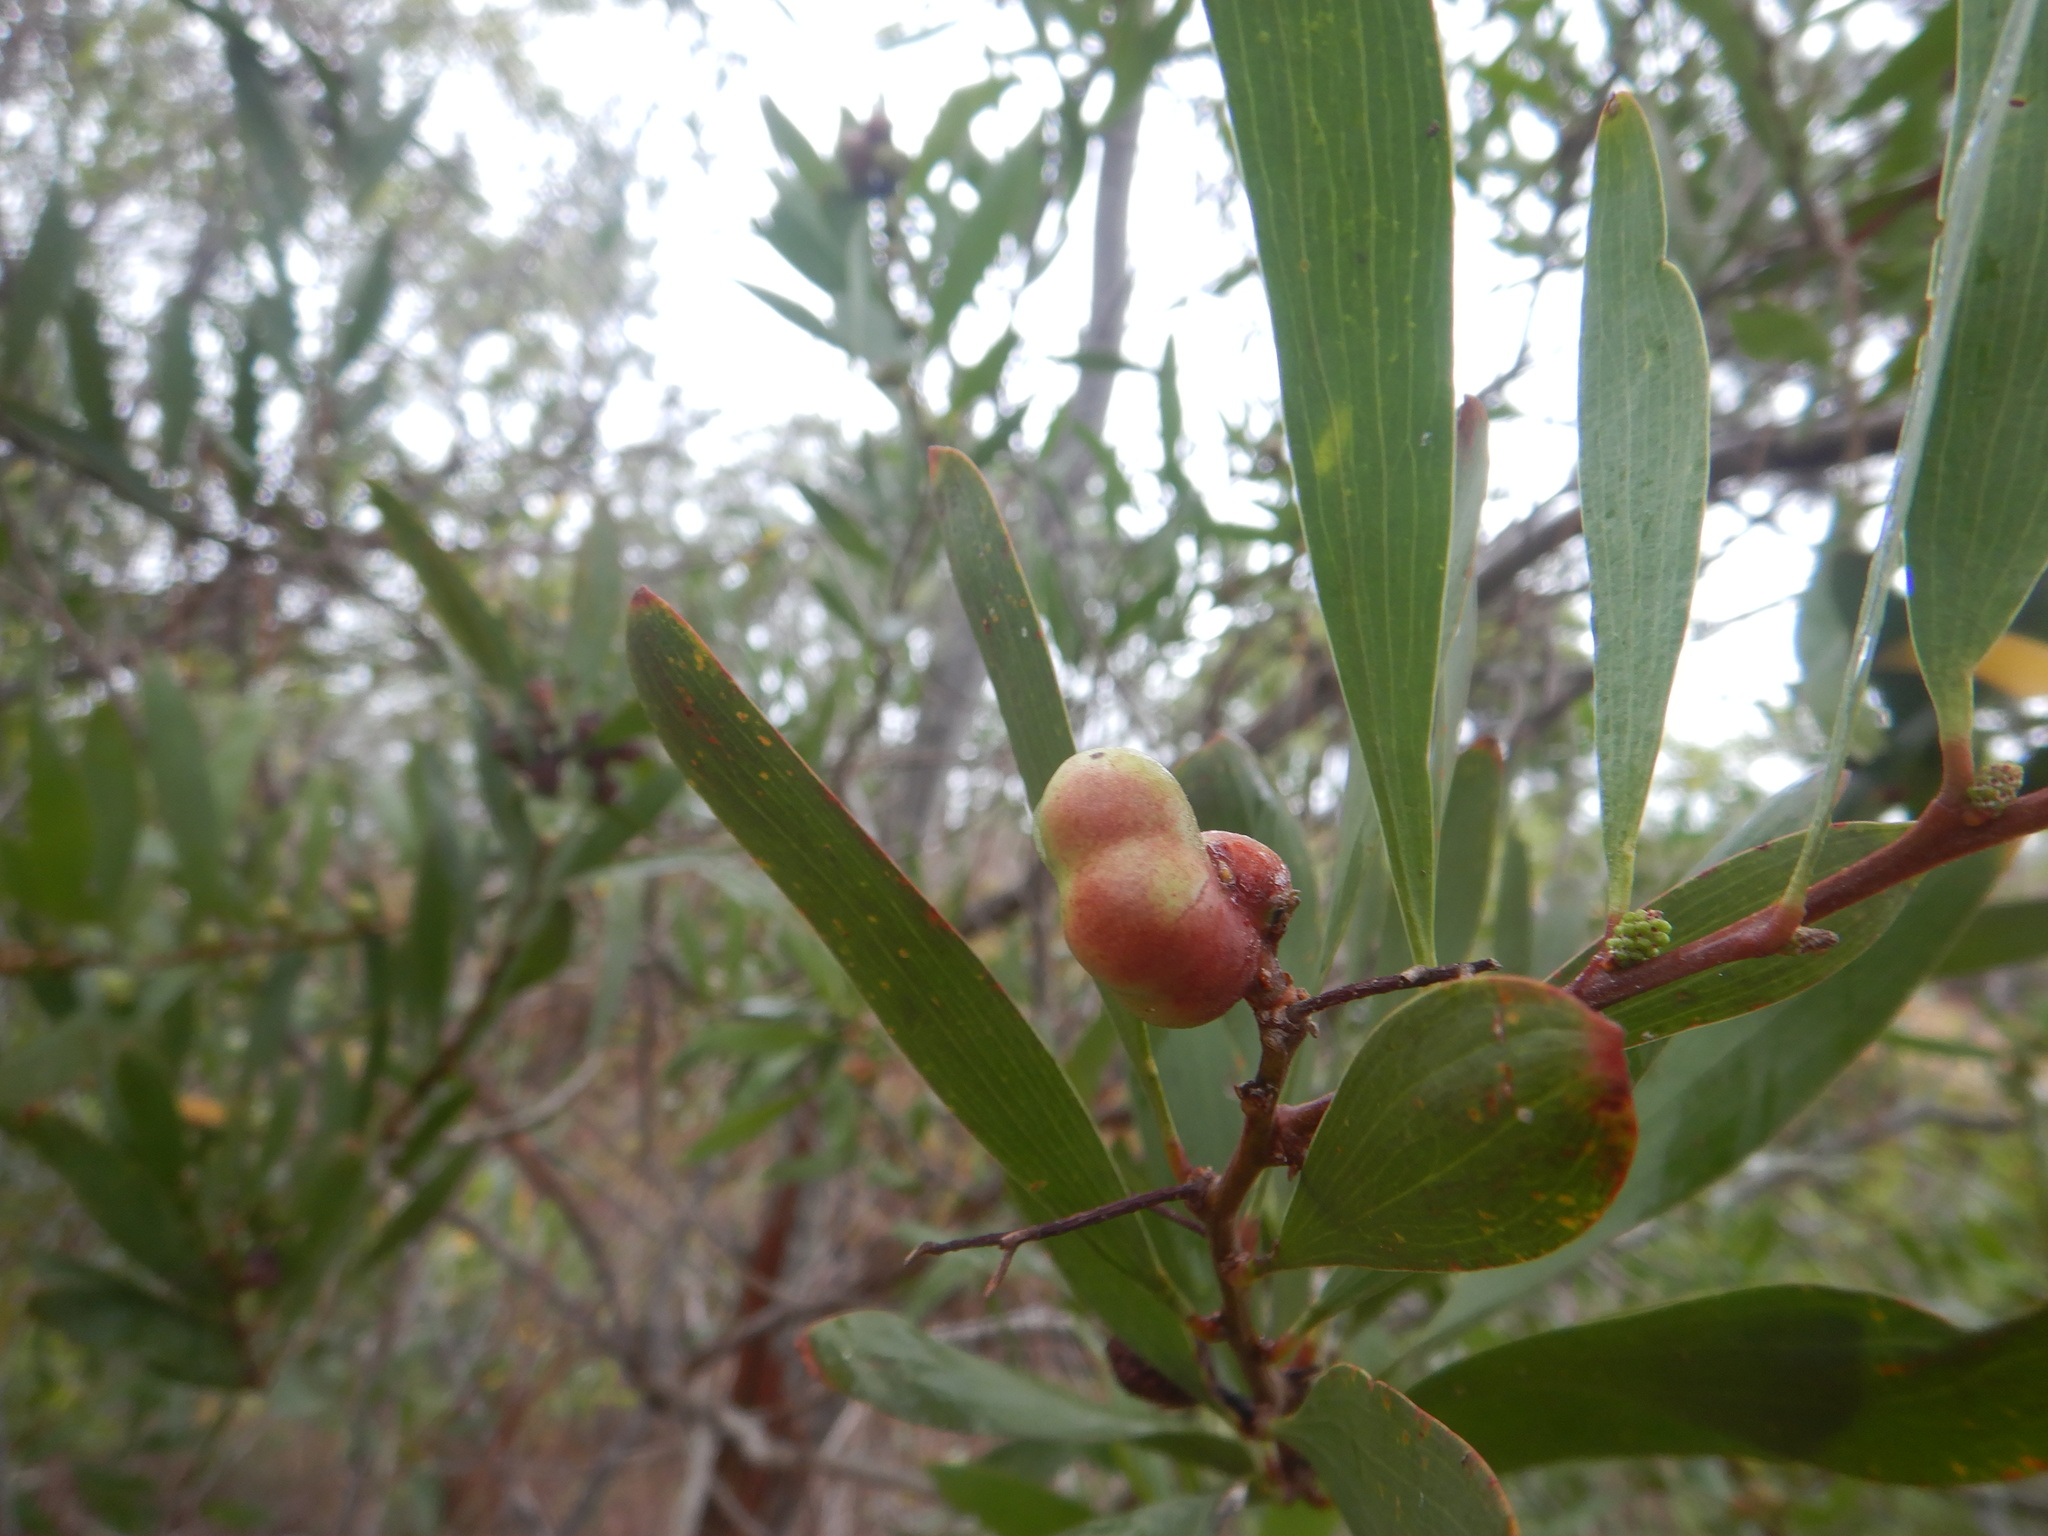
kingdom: Animalia
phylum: Arthropoda
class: Insecta
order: Hymenoptera
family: Pteromalidae
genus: Trichilogaster
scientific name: Trichilogaster acaciaelongifoliae
